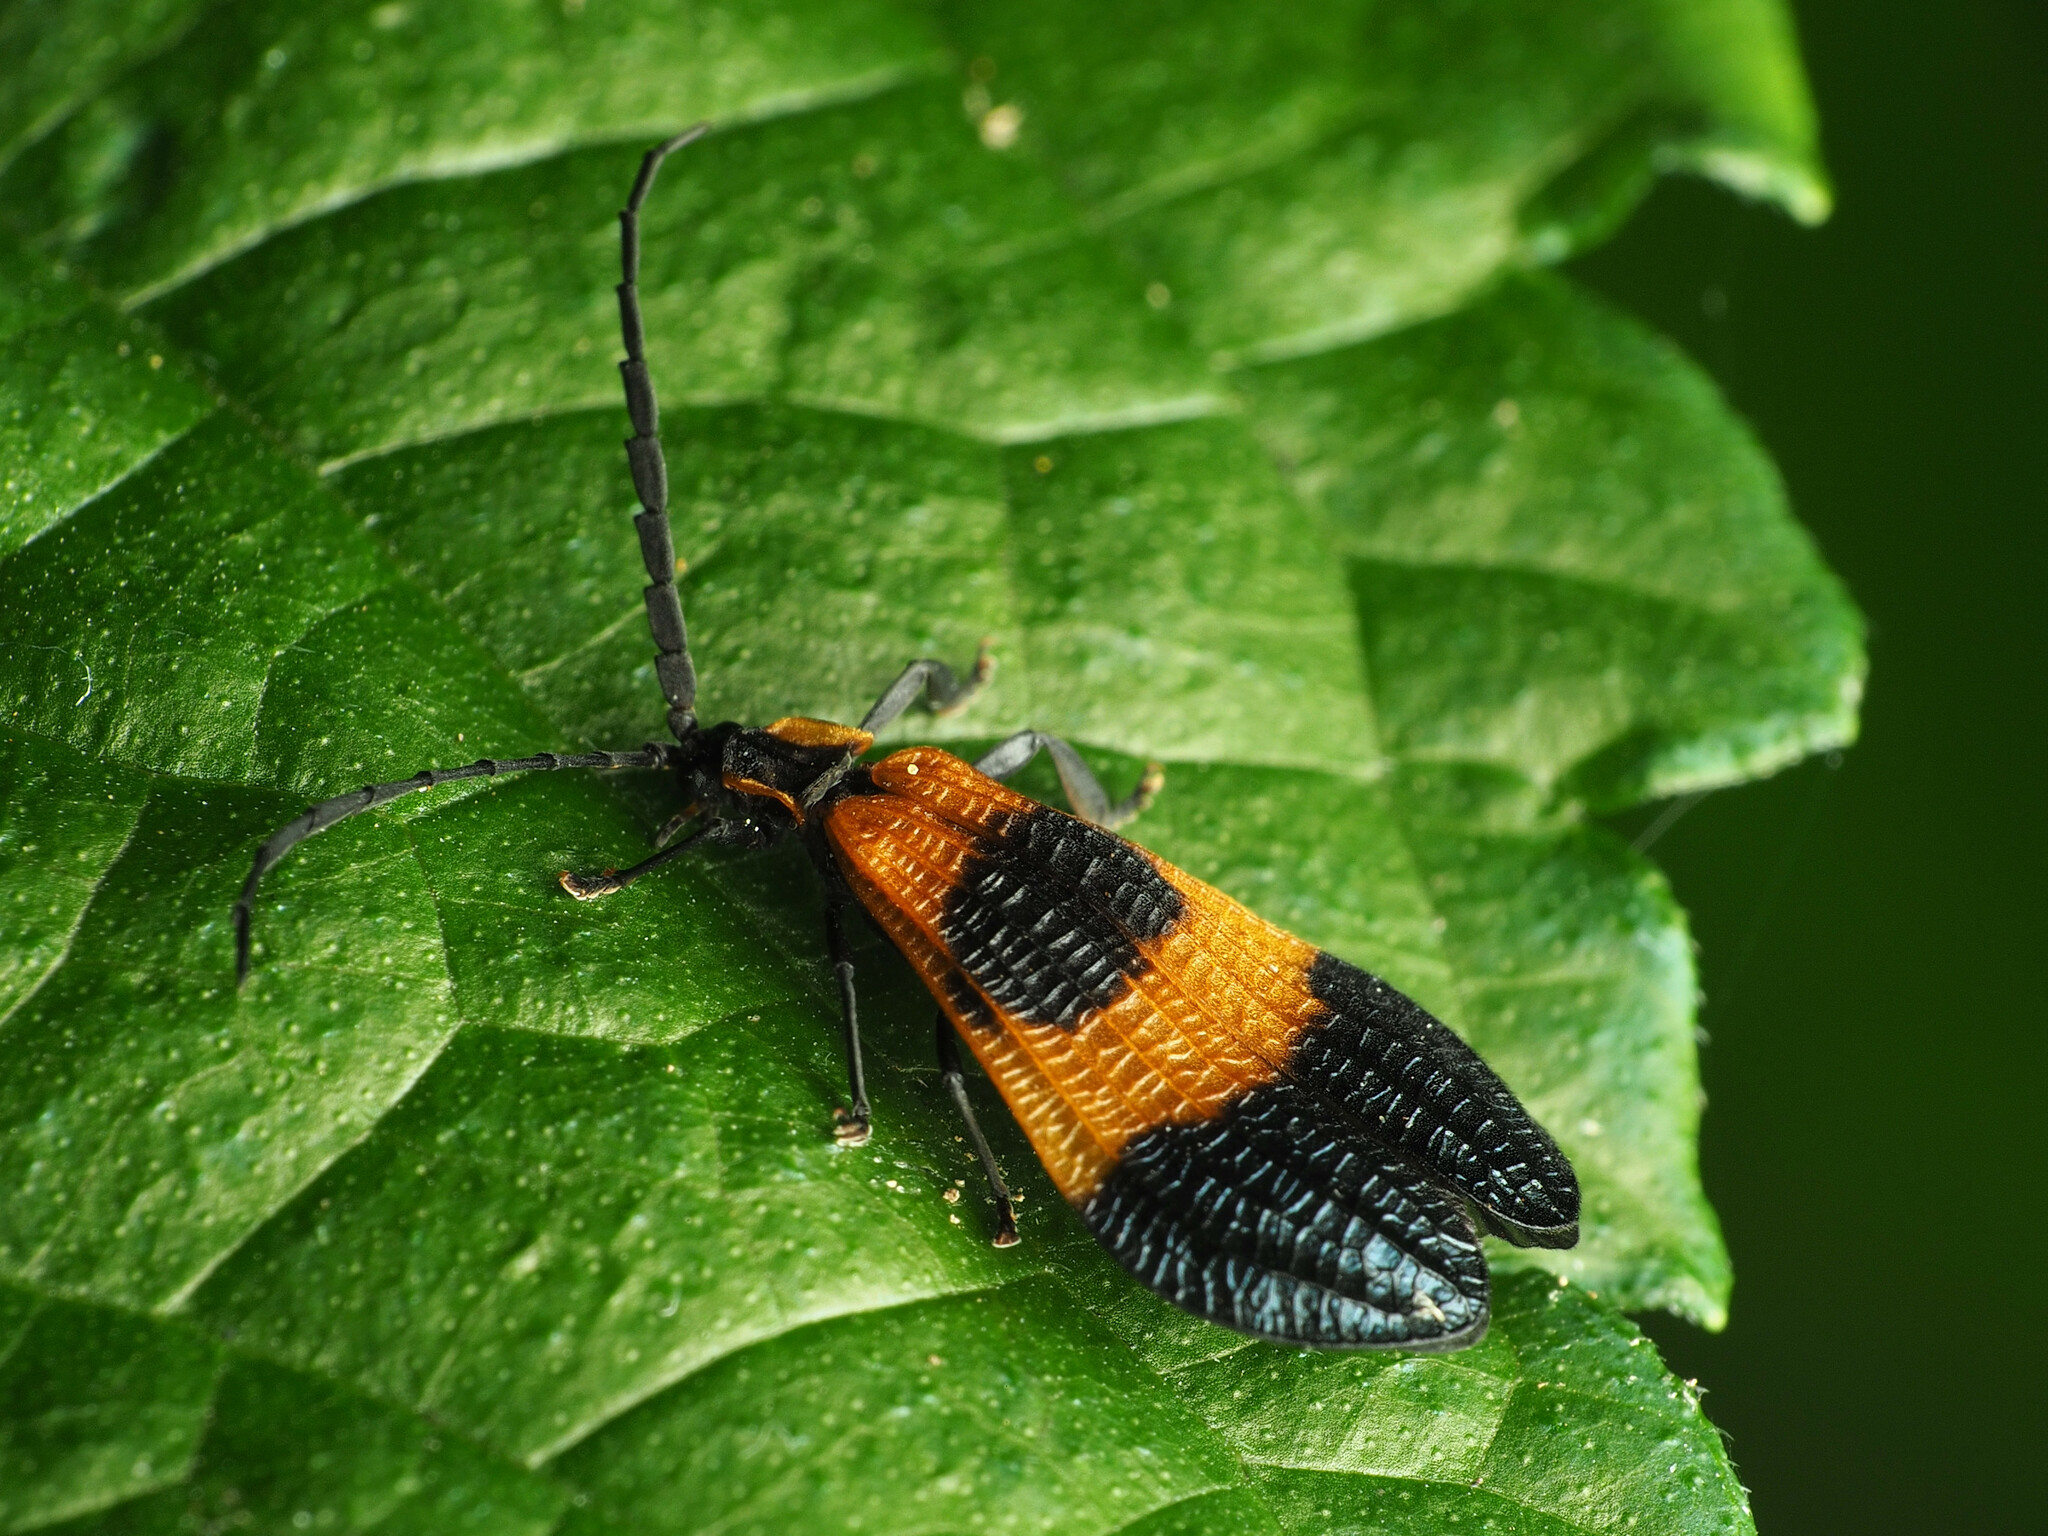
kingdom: Animalia
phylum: Arthropoda
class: Insecta
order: Coleoptera
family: Lycidae
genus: Calopteron
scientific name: Calopteron terminale
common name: End band net-winged beetle
